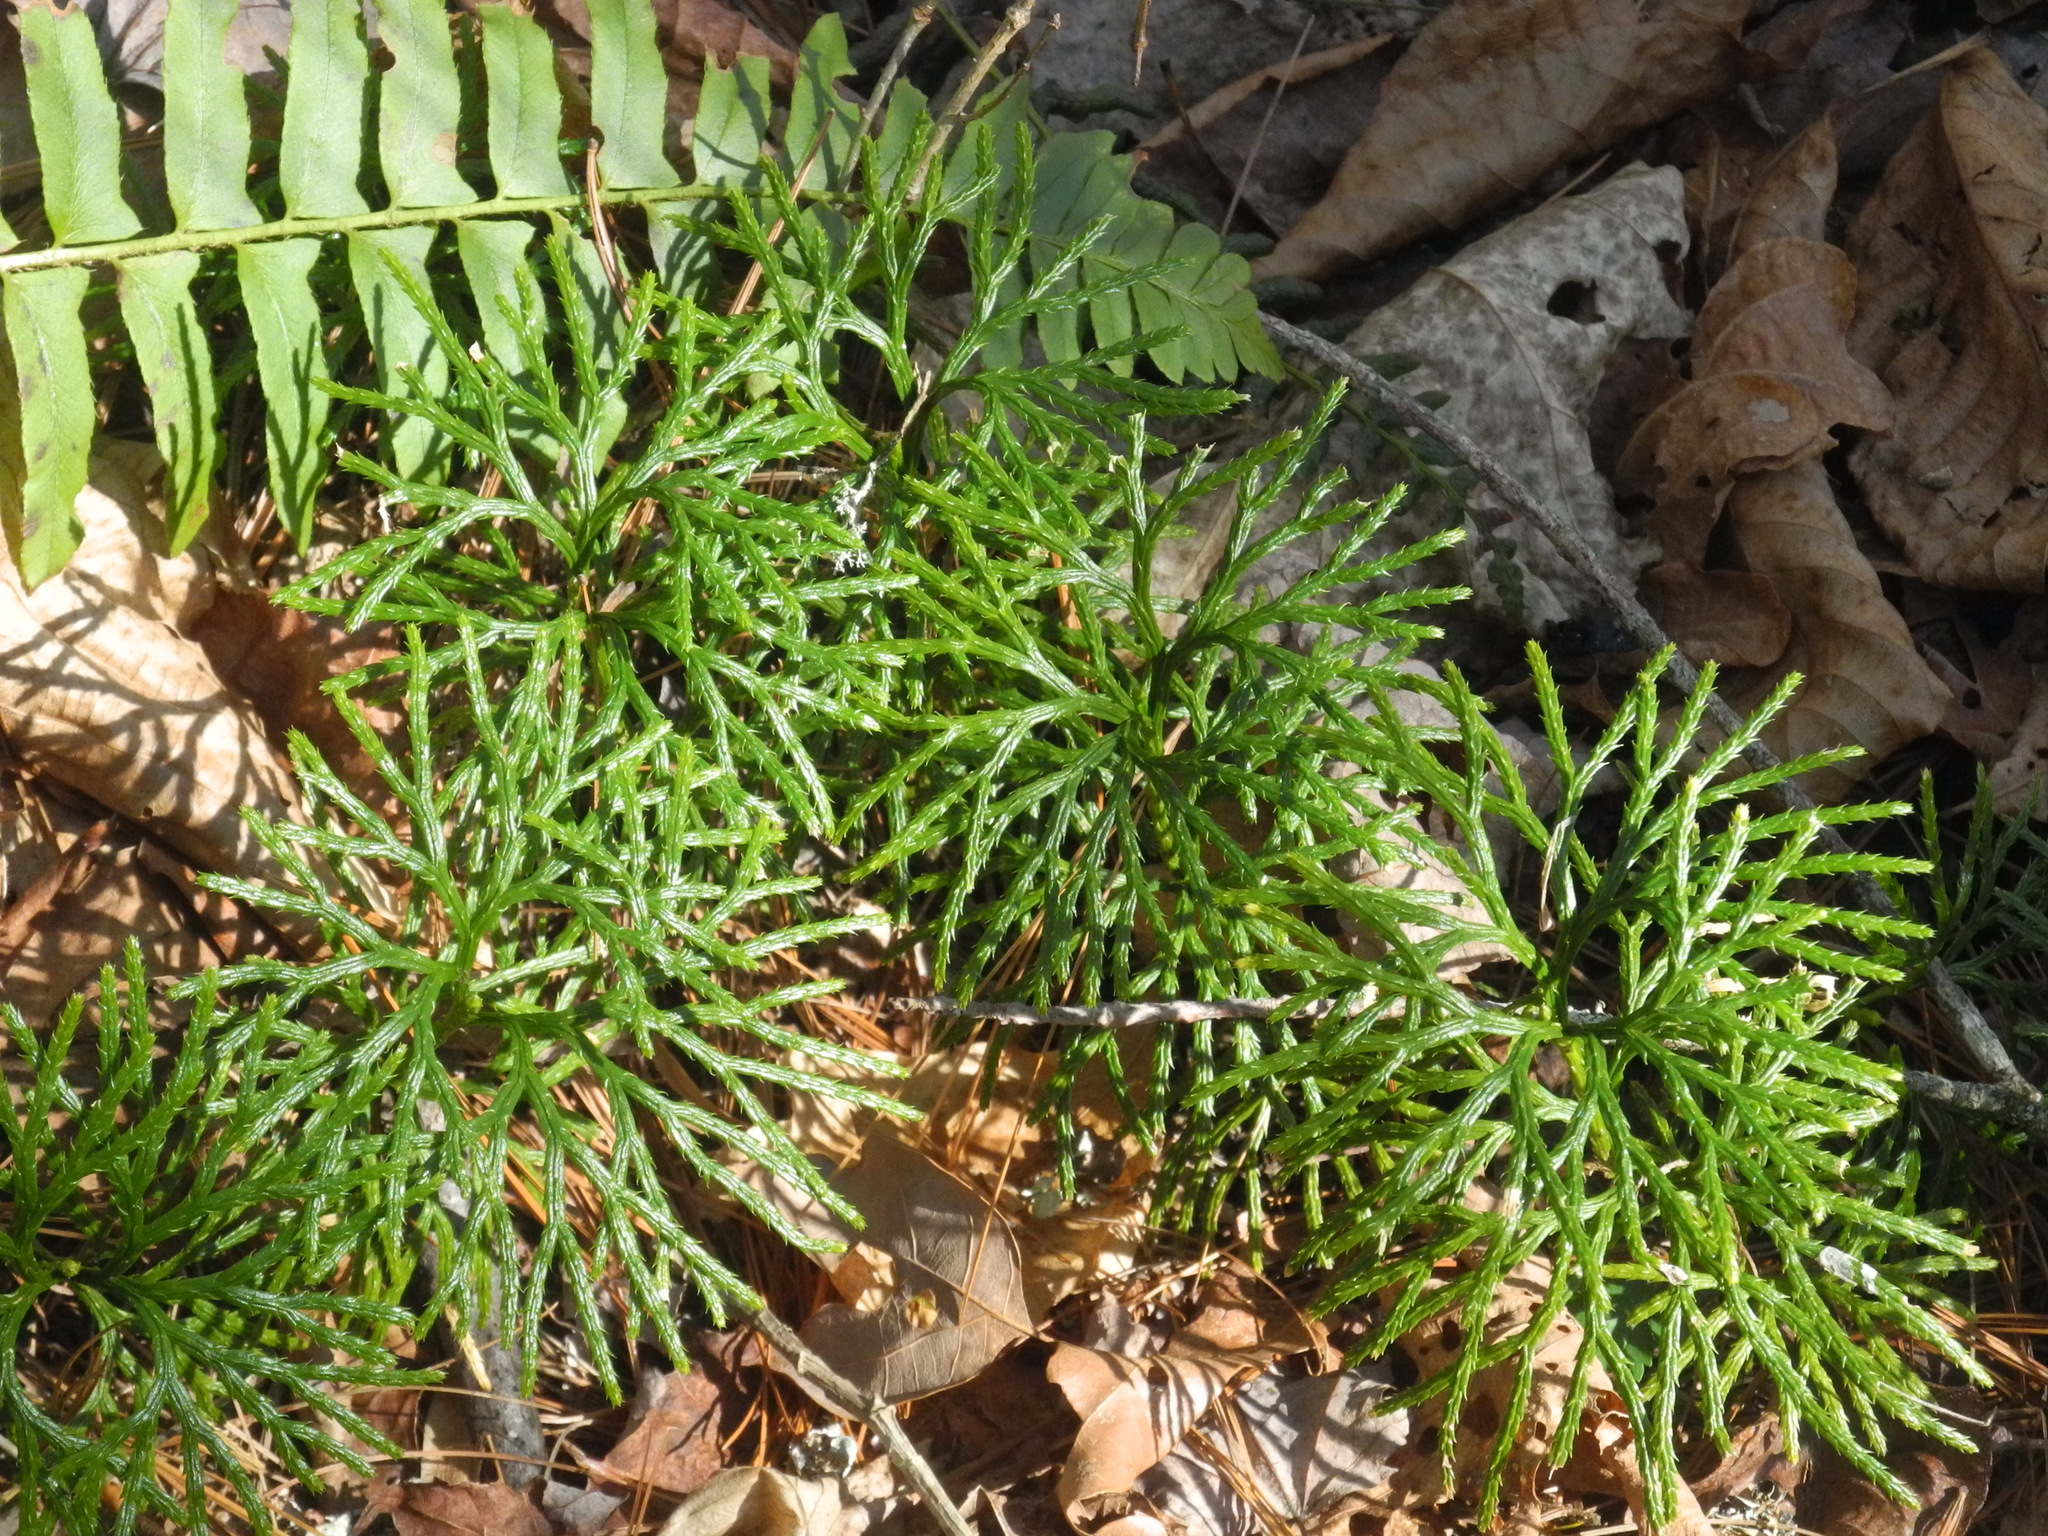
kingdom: Plantae
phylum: Tracheophyta
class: Lycopodiopsida
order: Lycopodiales
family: Lycopodiaceae
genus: Diphasiastrum
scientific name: Diphasiastrum digitatum
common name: Southern running-pine
